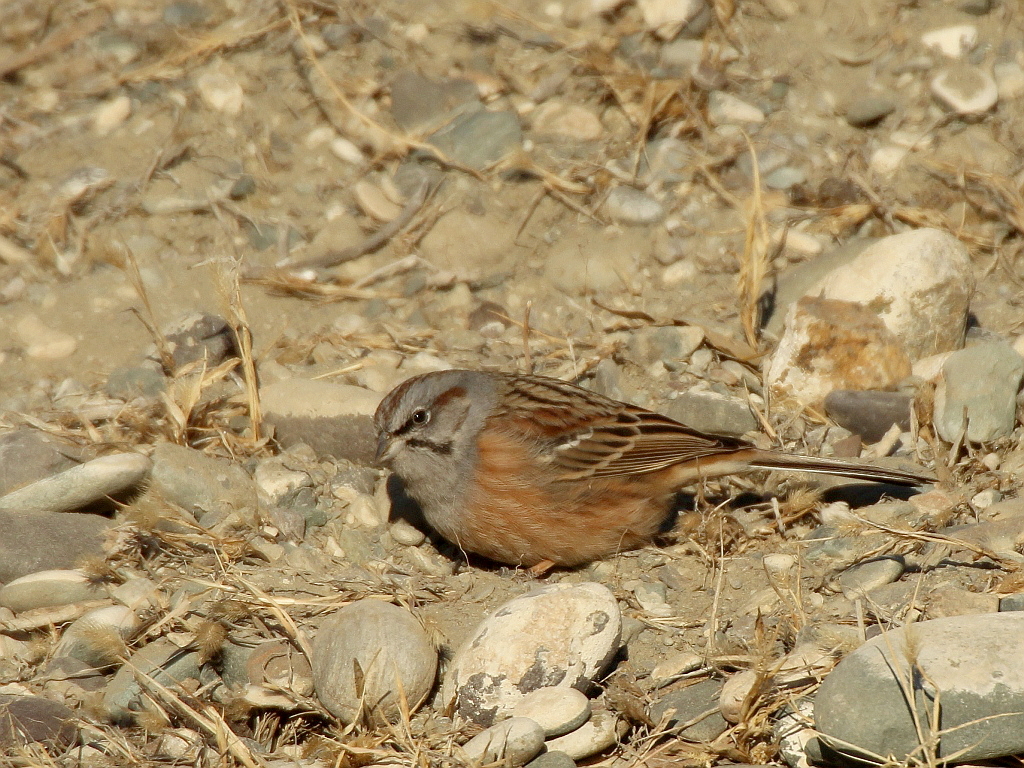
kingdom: Animalia
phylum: Chordata
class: Aves
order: Passeriformes
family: Emberizidae
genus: Emberiza
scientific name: Emberiza godlewskii
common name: Godlewski's bunting
